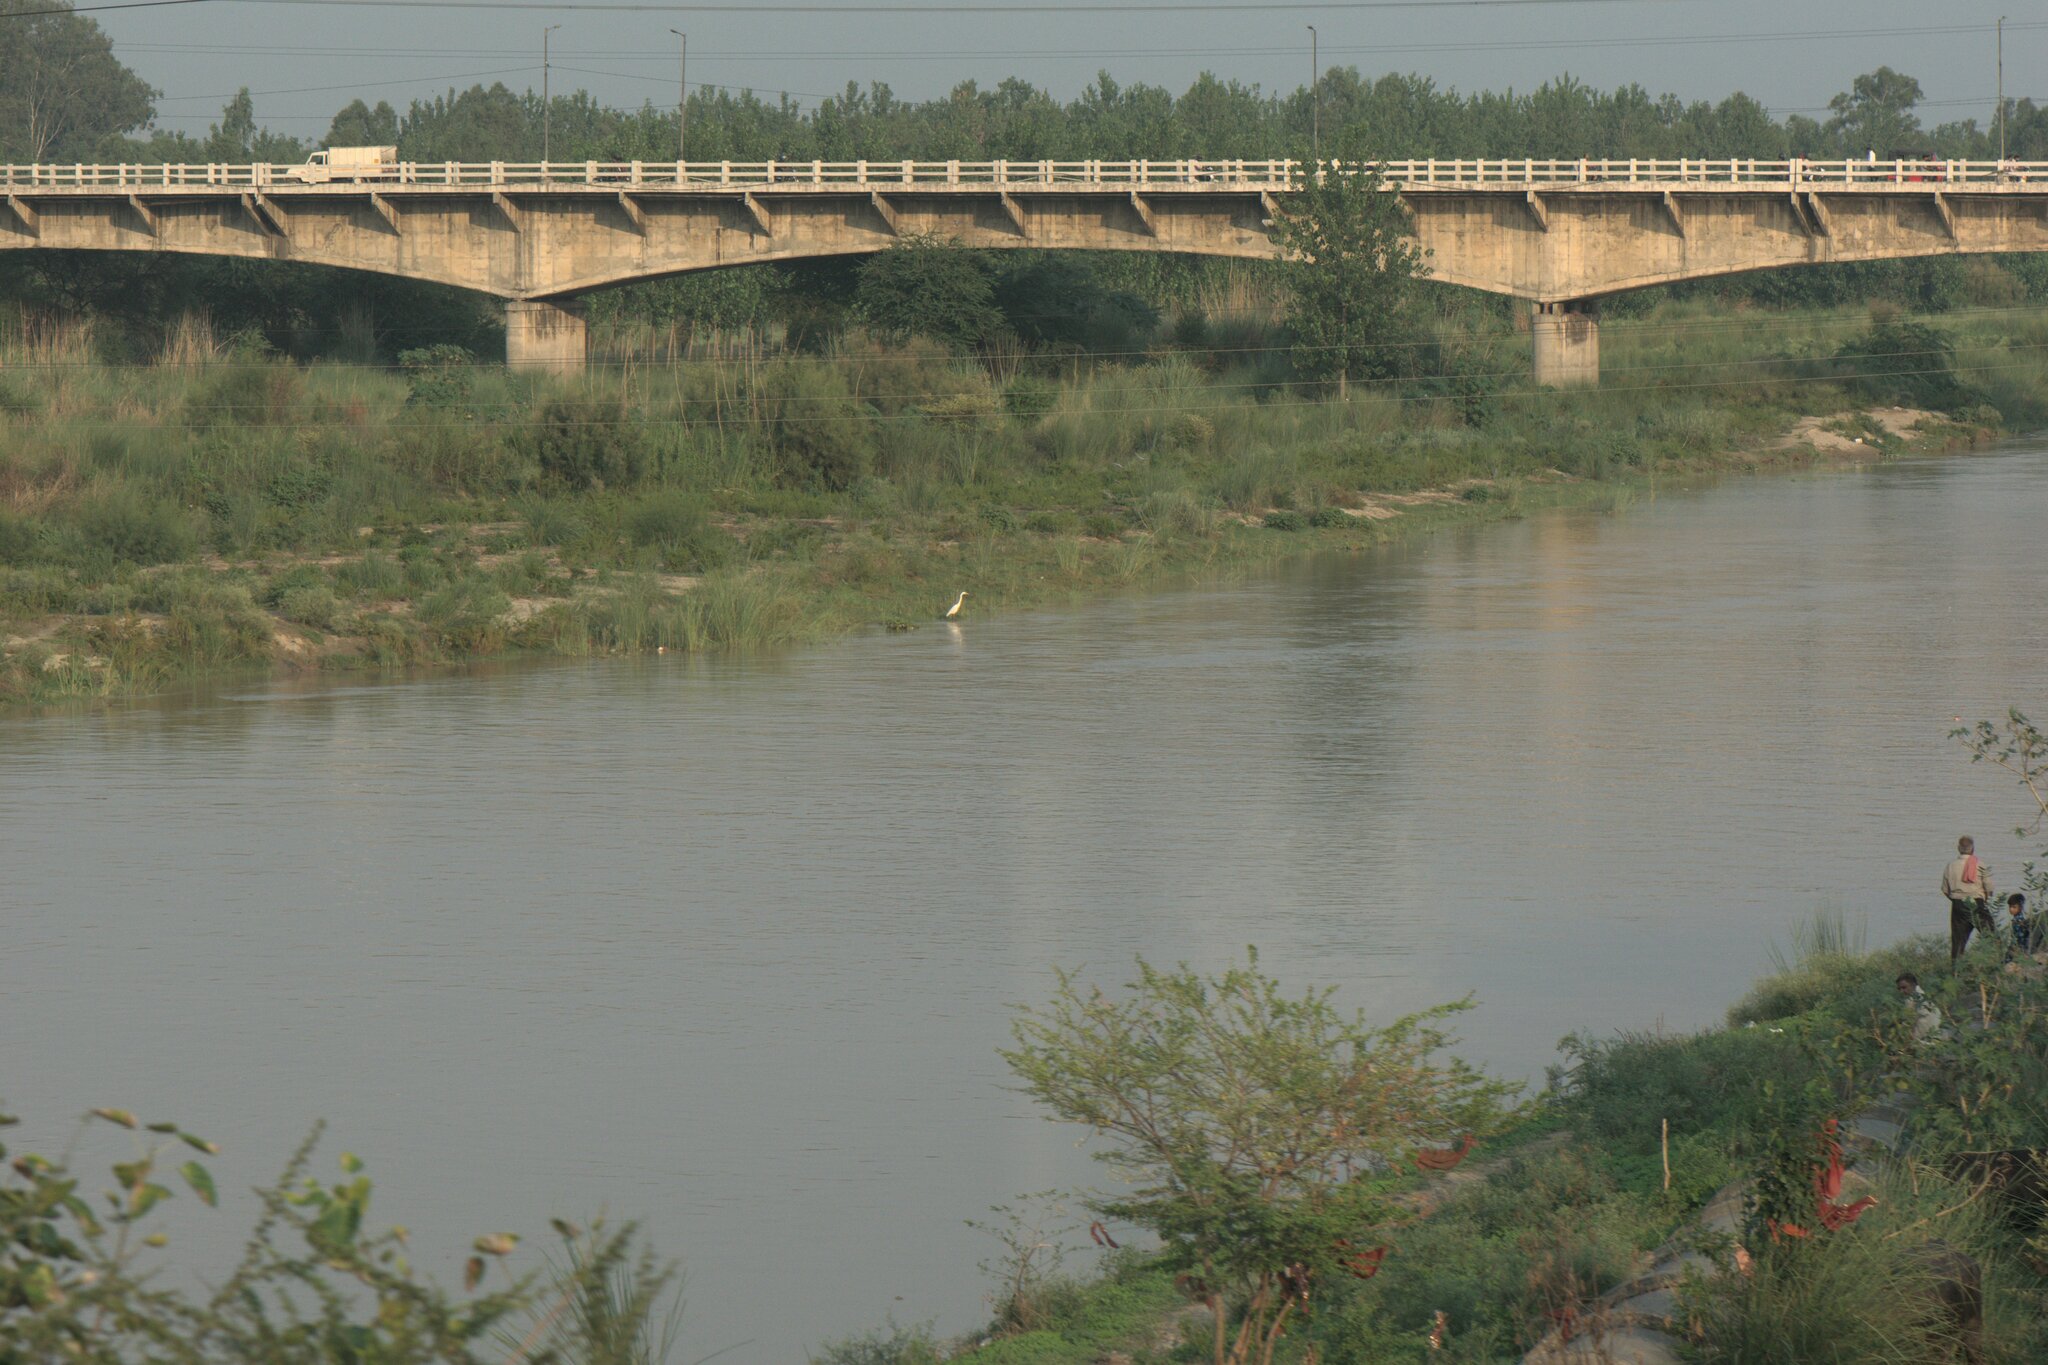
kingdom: Animalia
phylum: Chordata
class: Aves
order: Pelecaniformes
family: Ardeidae
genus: Ardea
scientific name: Ardea alba
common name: Great egret
